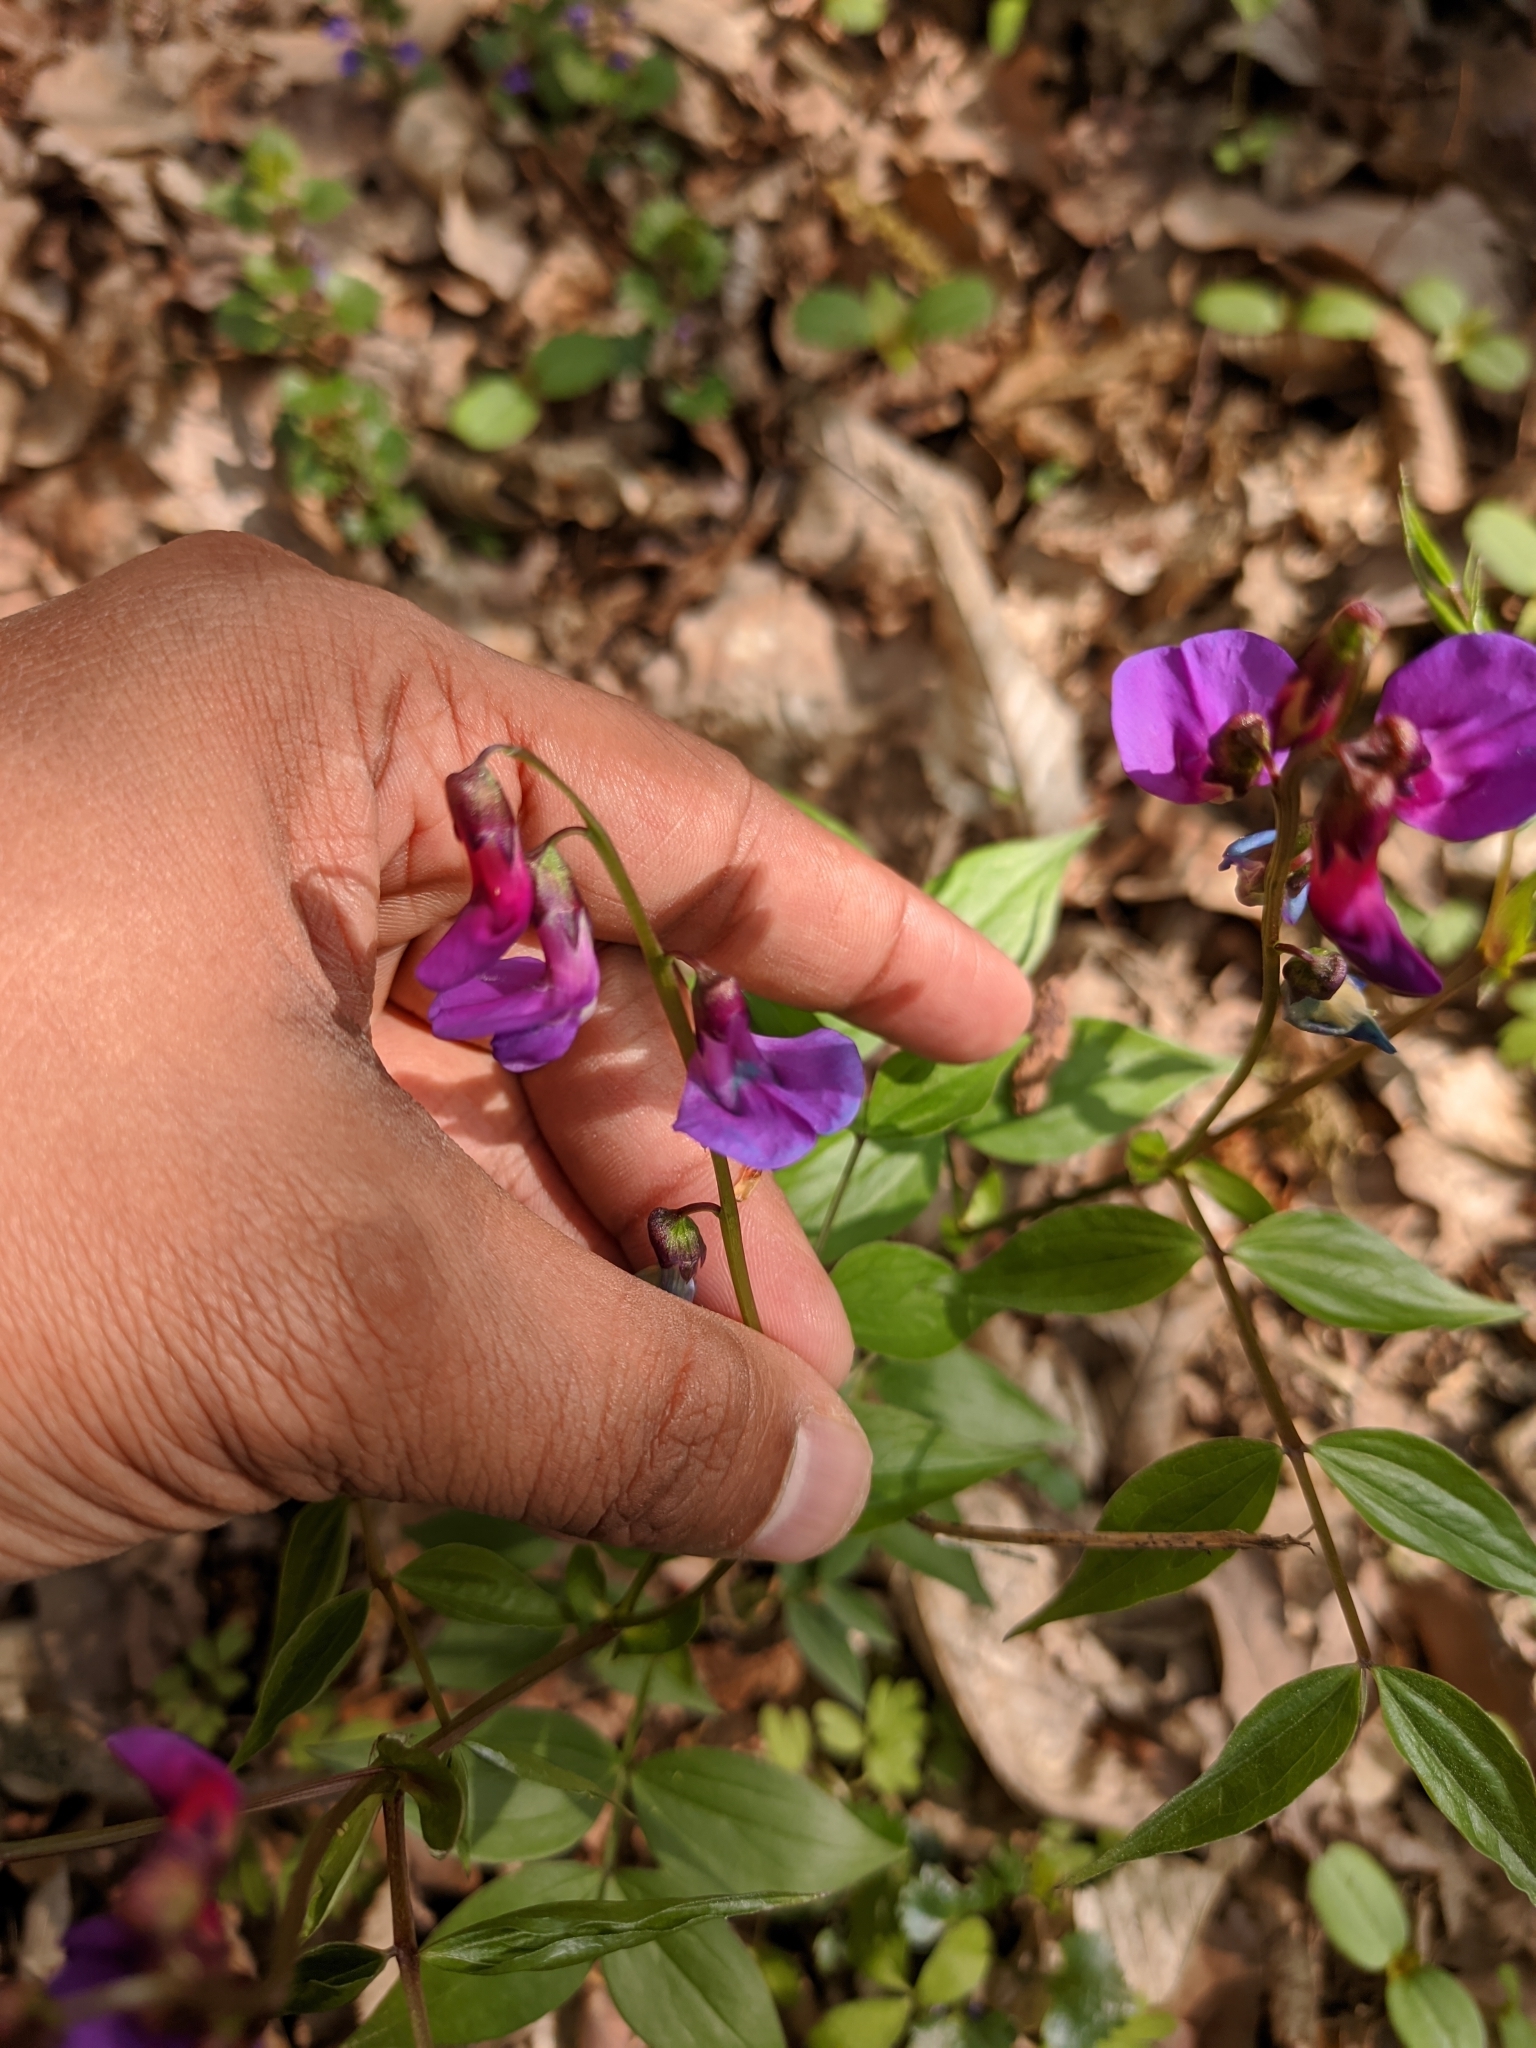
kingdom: Plantae
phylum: Tracheophyta
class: Magnoliopsida
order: Fabales
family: Fabaceae
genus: Lathyrus
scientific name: Lathyrus vernus
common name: Spring pea
